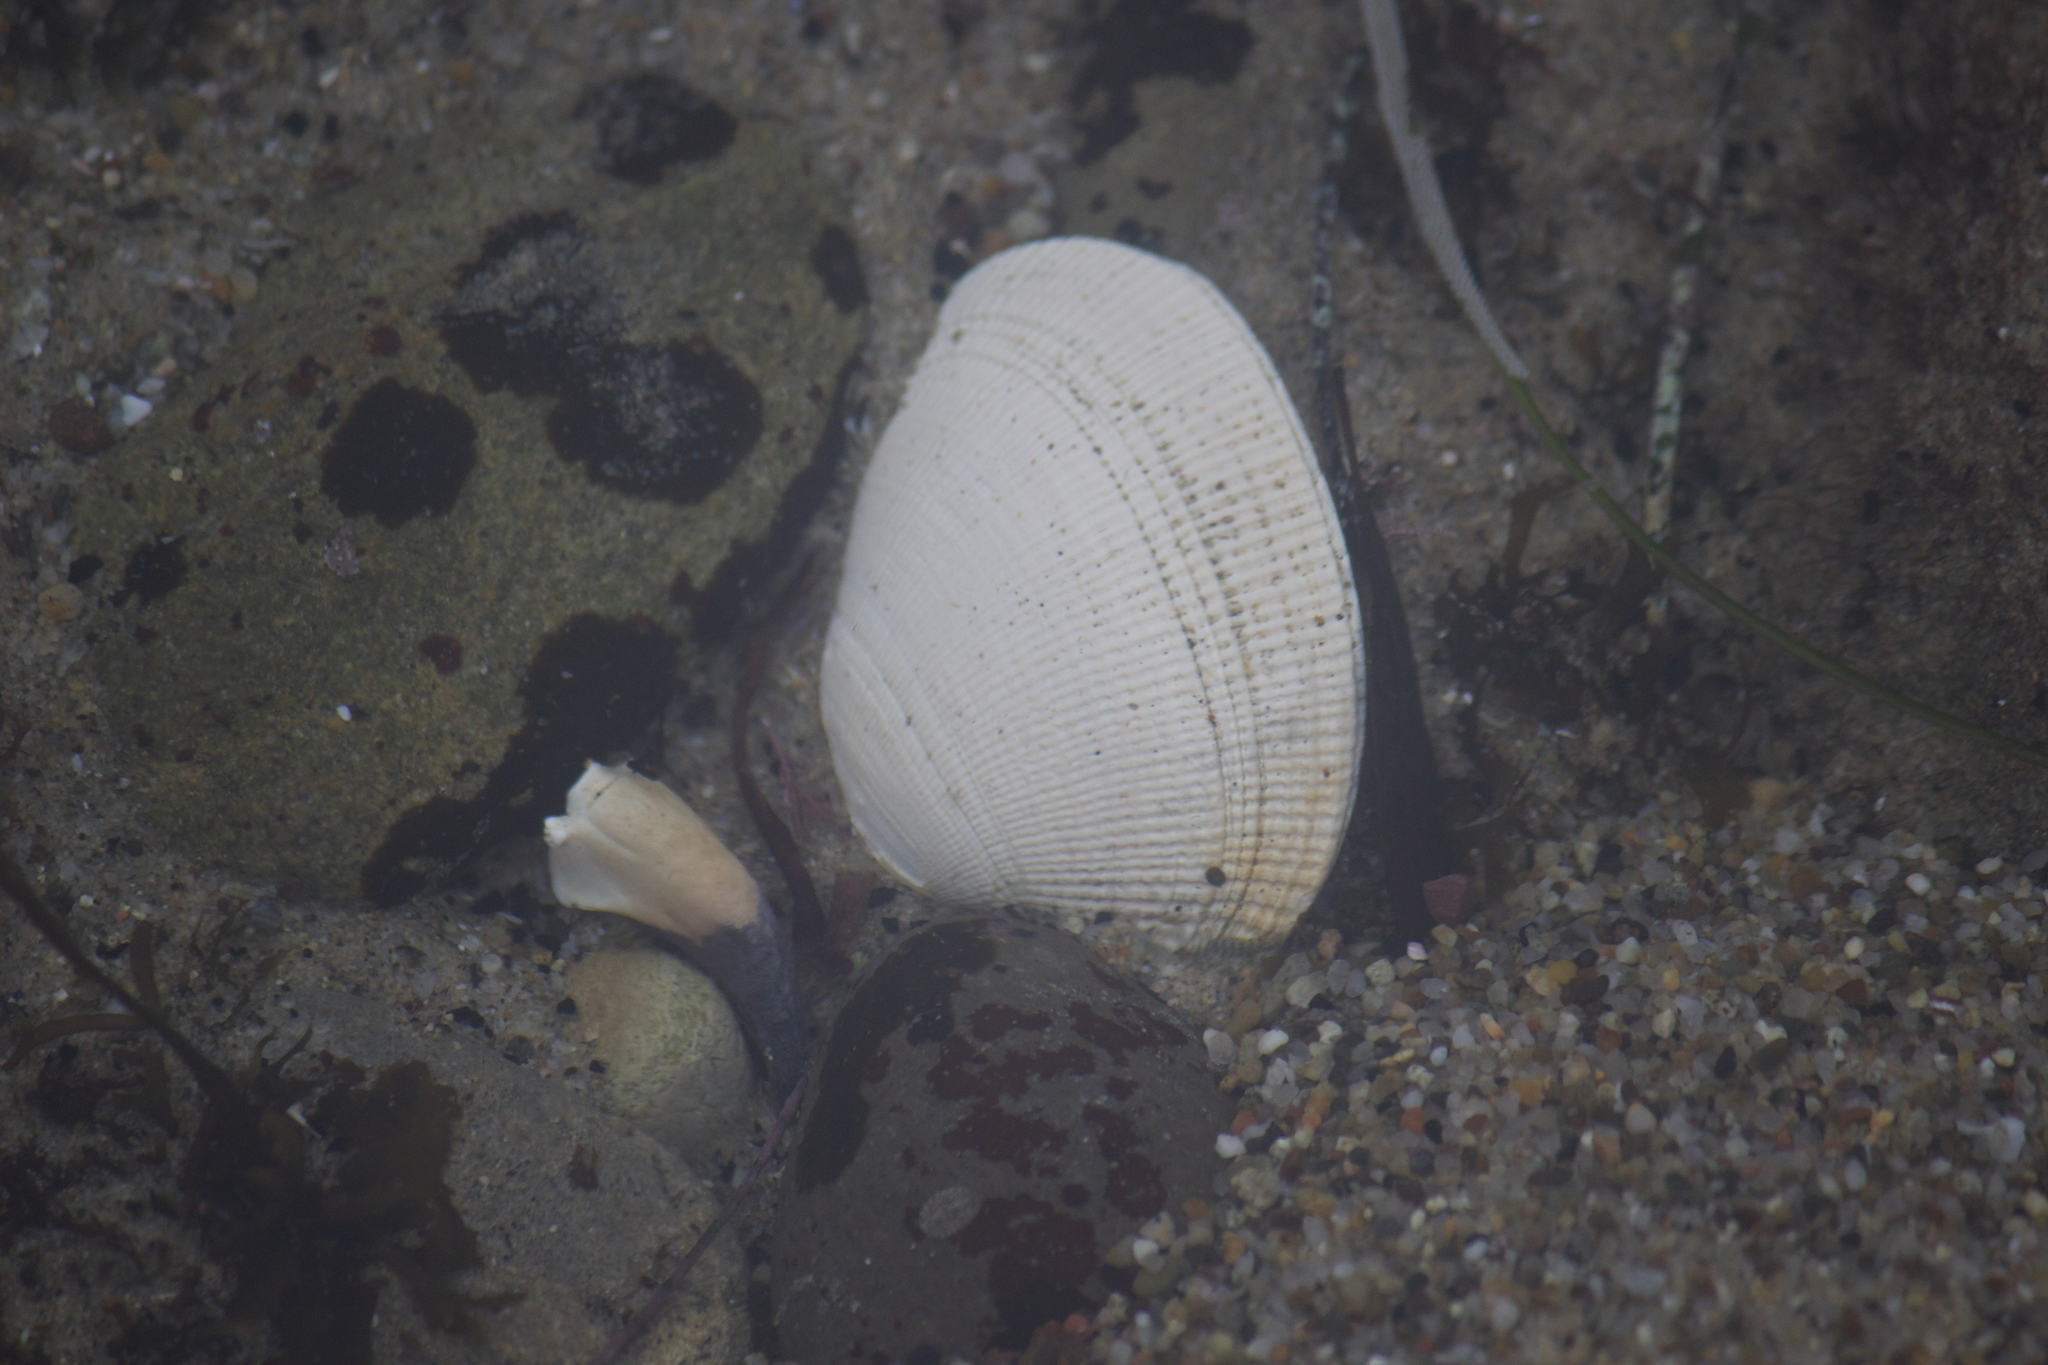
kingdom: Animalia
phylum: Mollusca
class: Bivalvia
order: Venerida
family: Veneridae
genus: Leukoma
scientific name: Leukoma staminea
